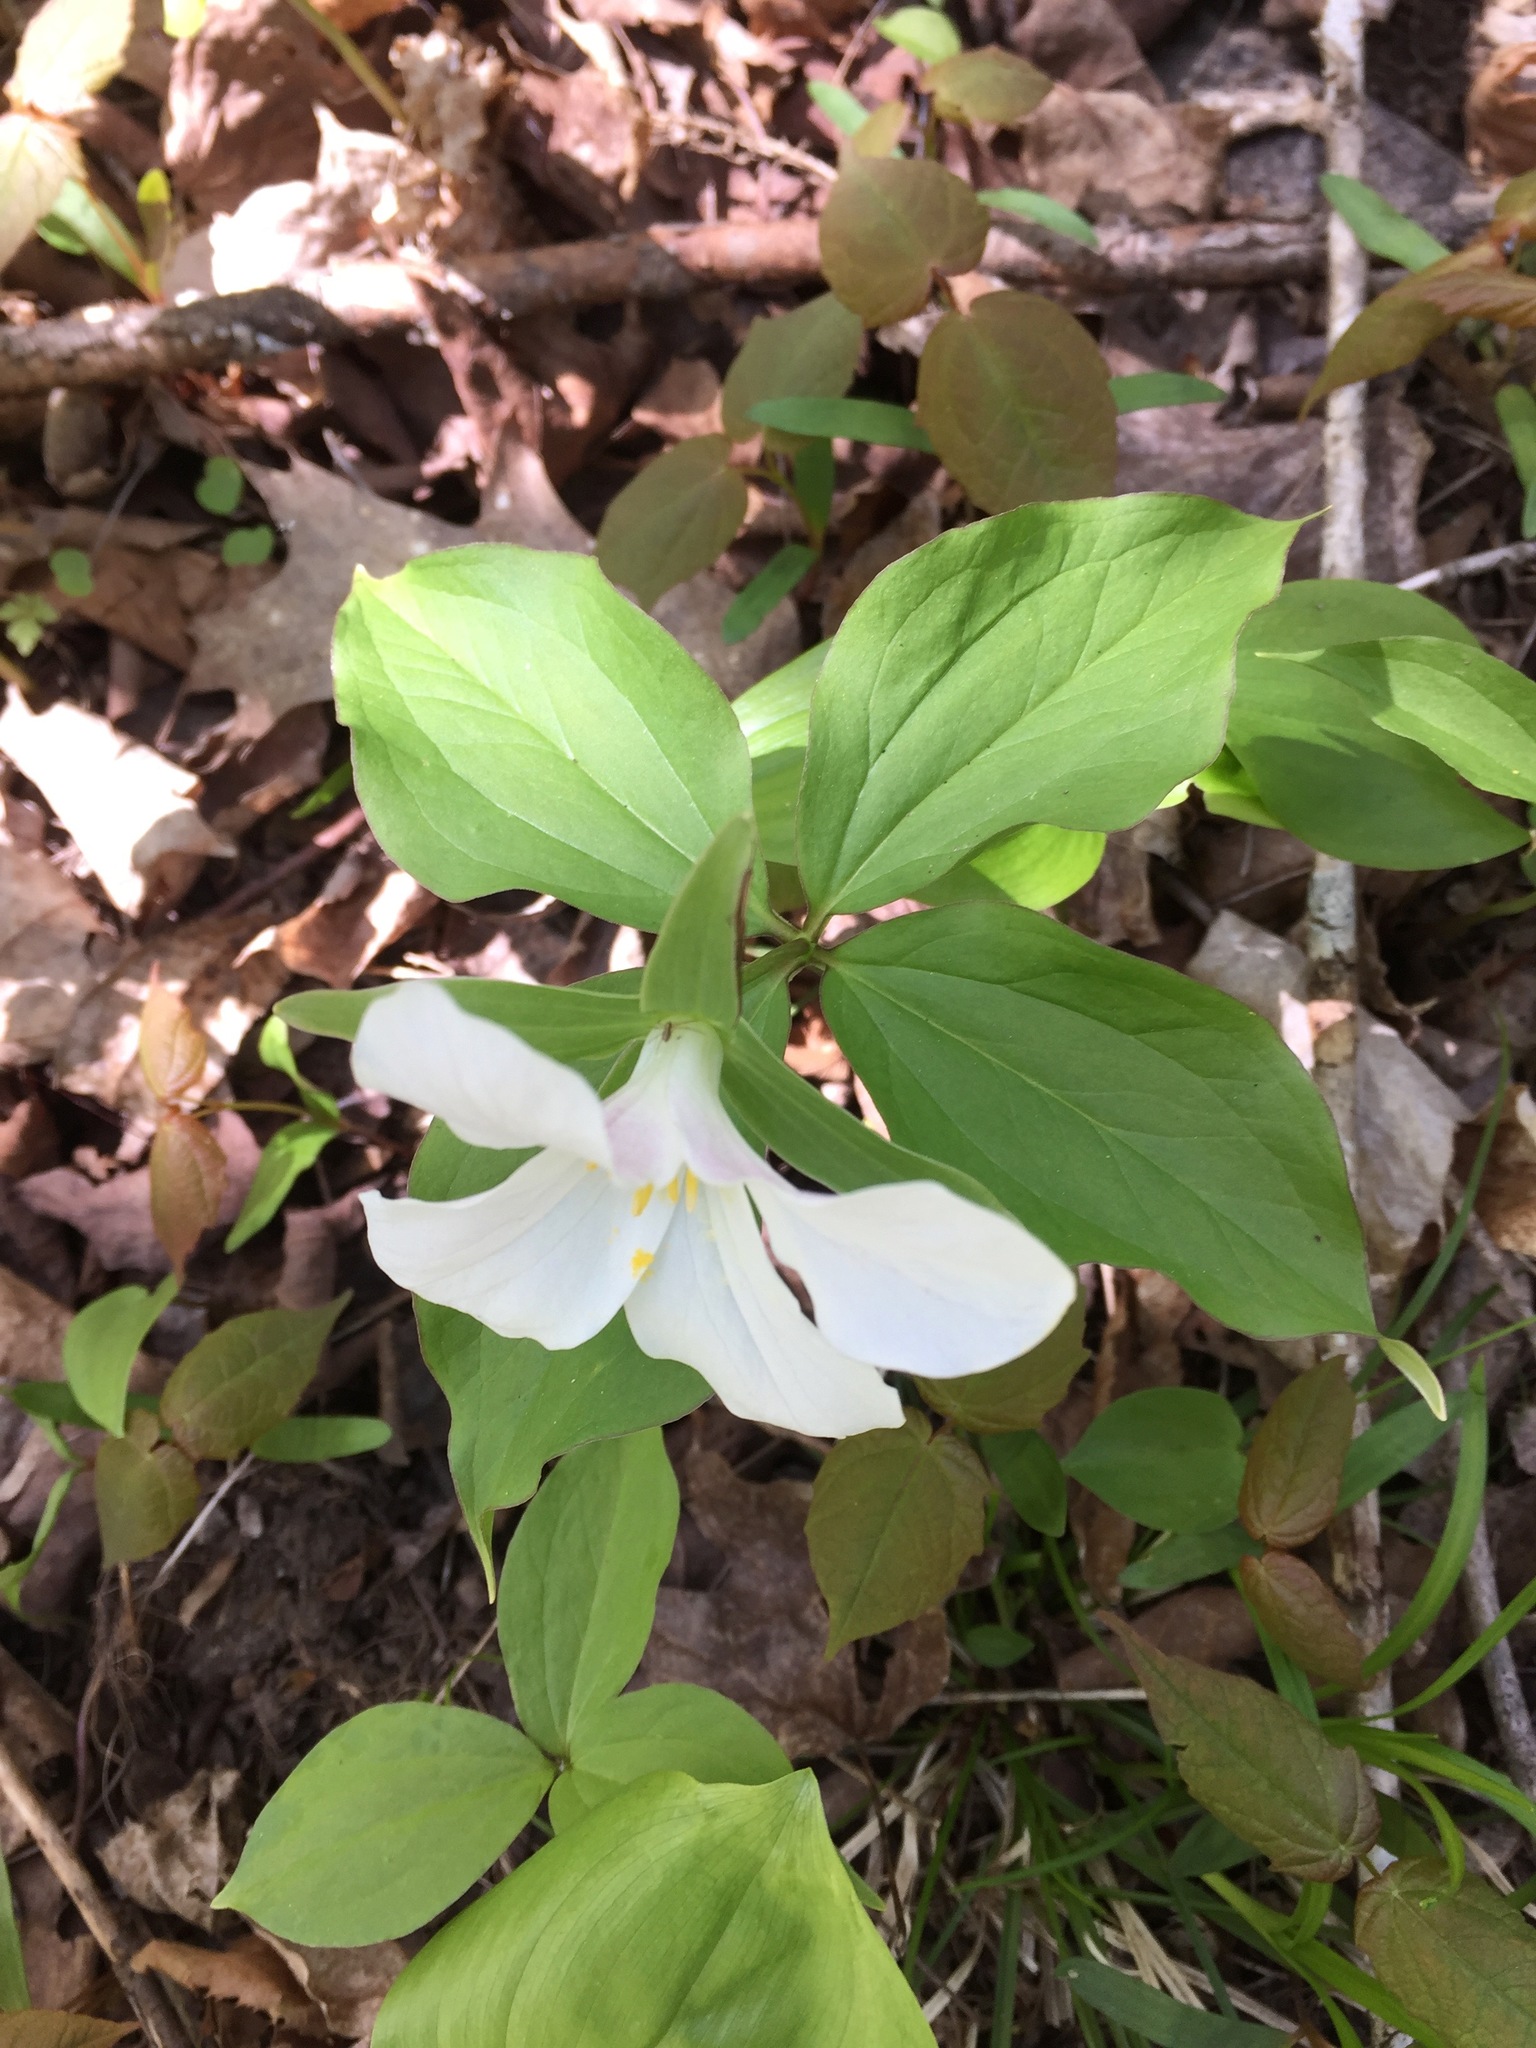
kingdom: Plantae
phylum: Tracheophyta
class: Liliopsida
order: Liliales
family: Melanthiaceae
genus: Trillium
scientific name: Trillium grandiflorum
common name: Great white trillium
